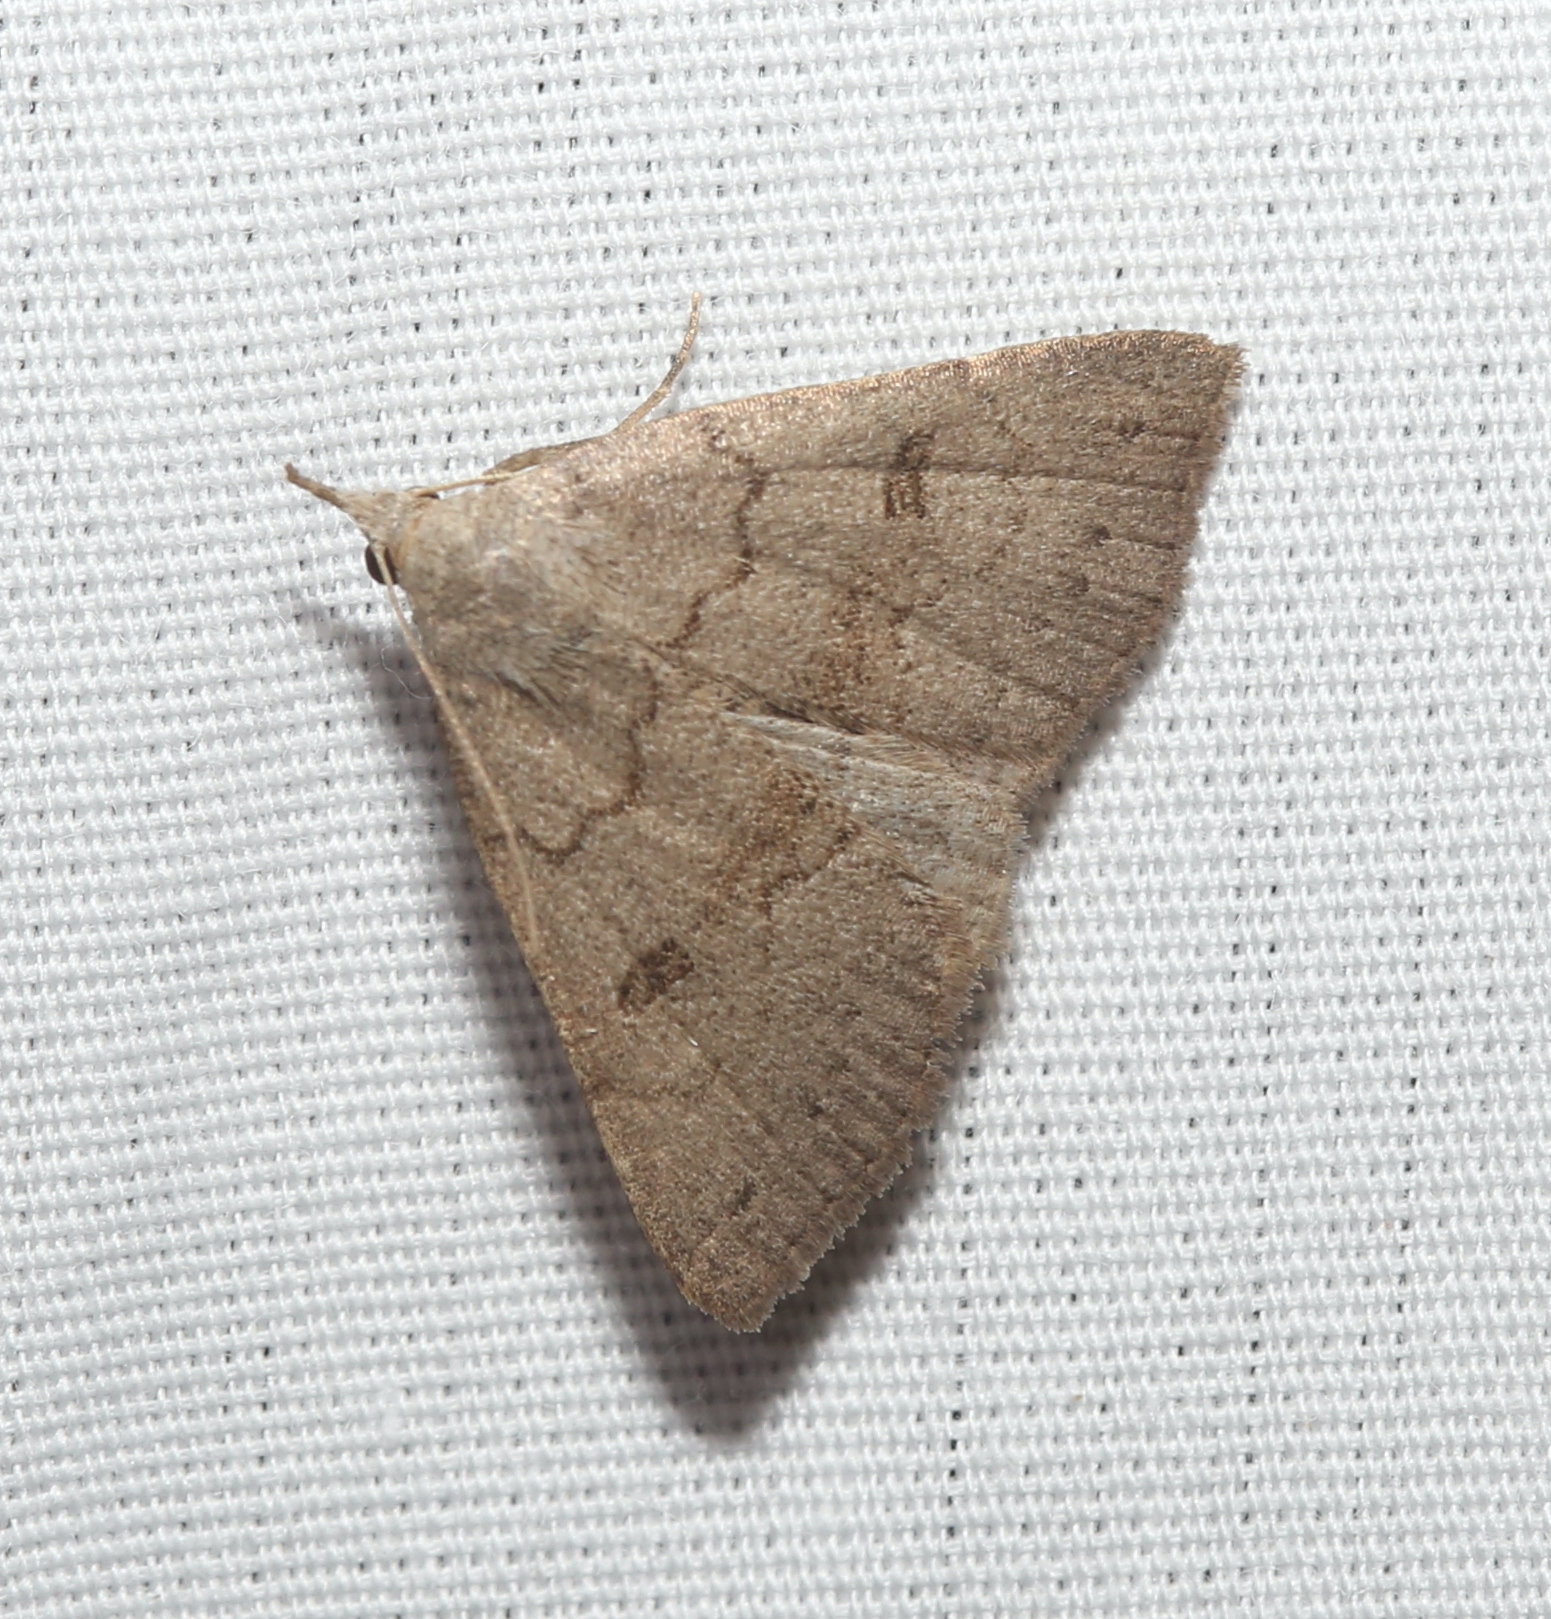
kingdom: Animalia
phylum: Arthropoda
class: Insecta
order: Lepidoptera
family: Erebidae
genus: Macrochilo
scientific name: Macrochilo morbidalis
